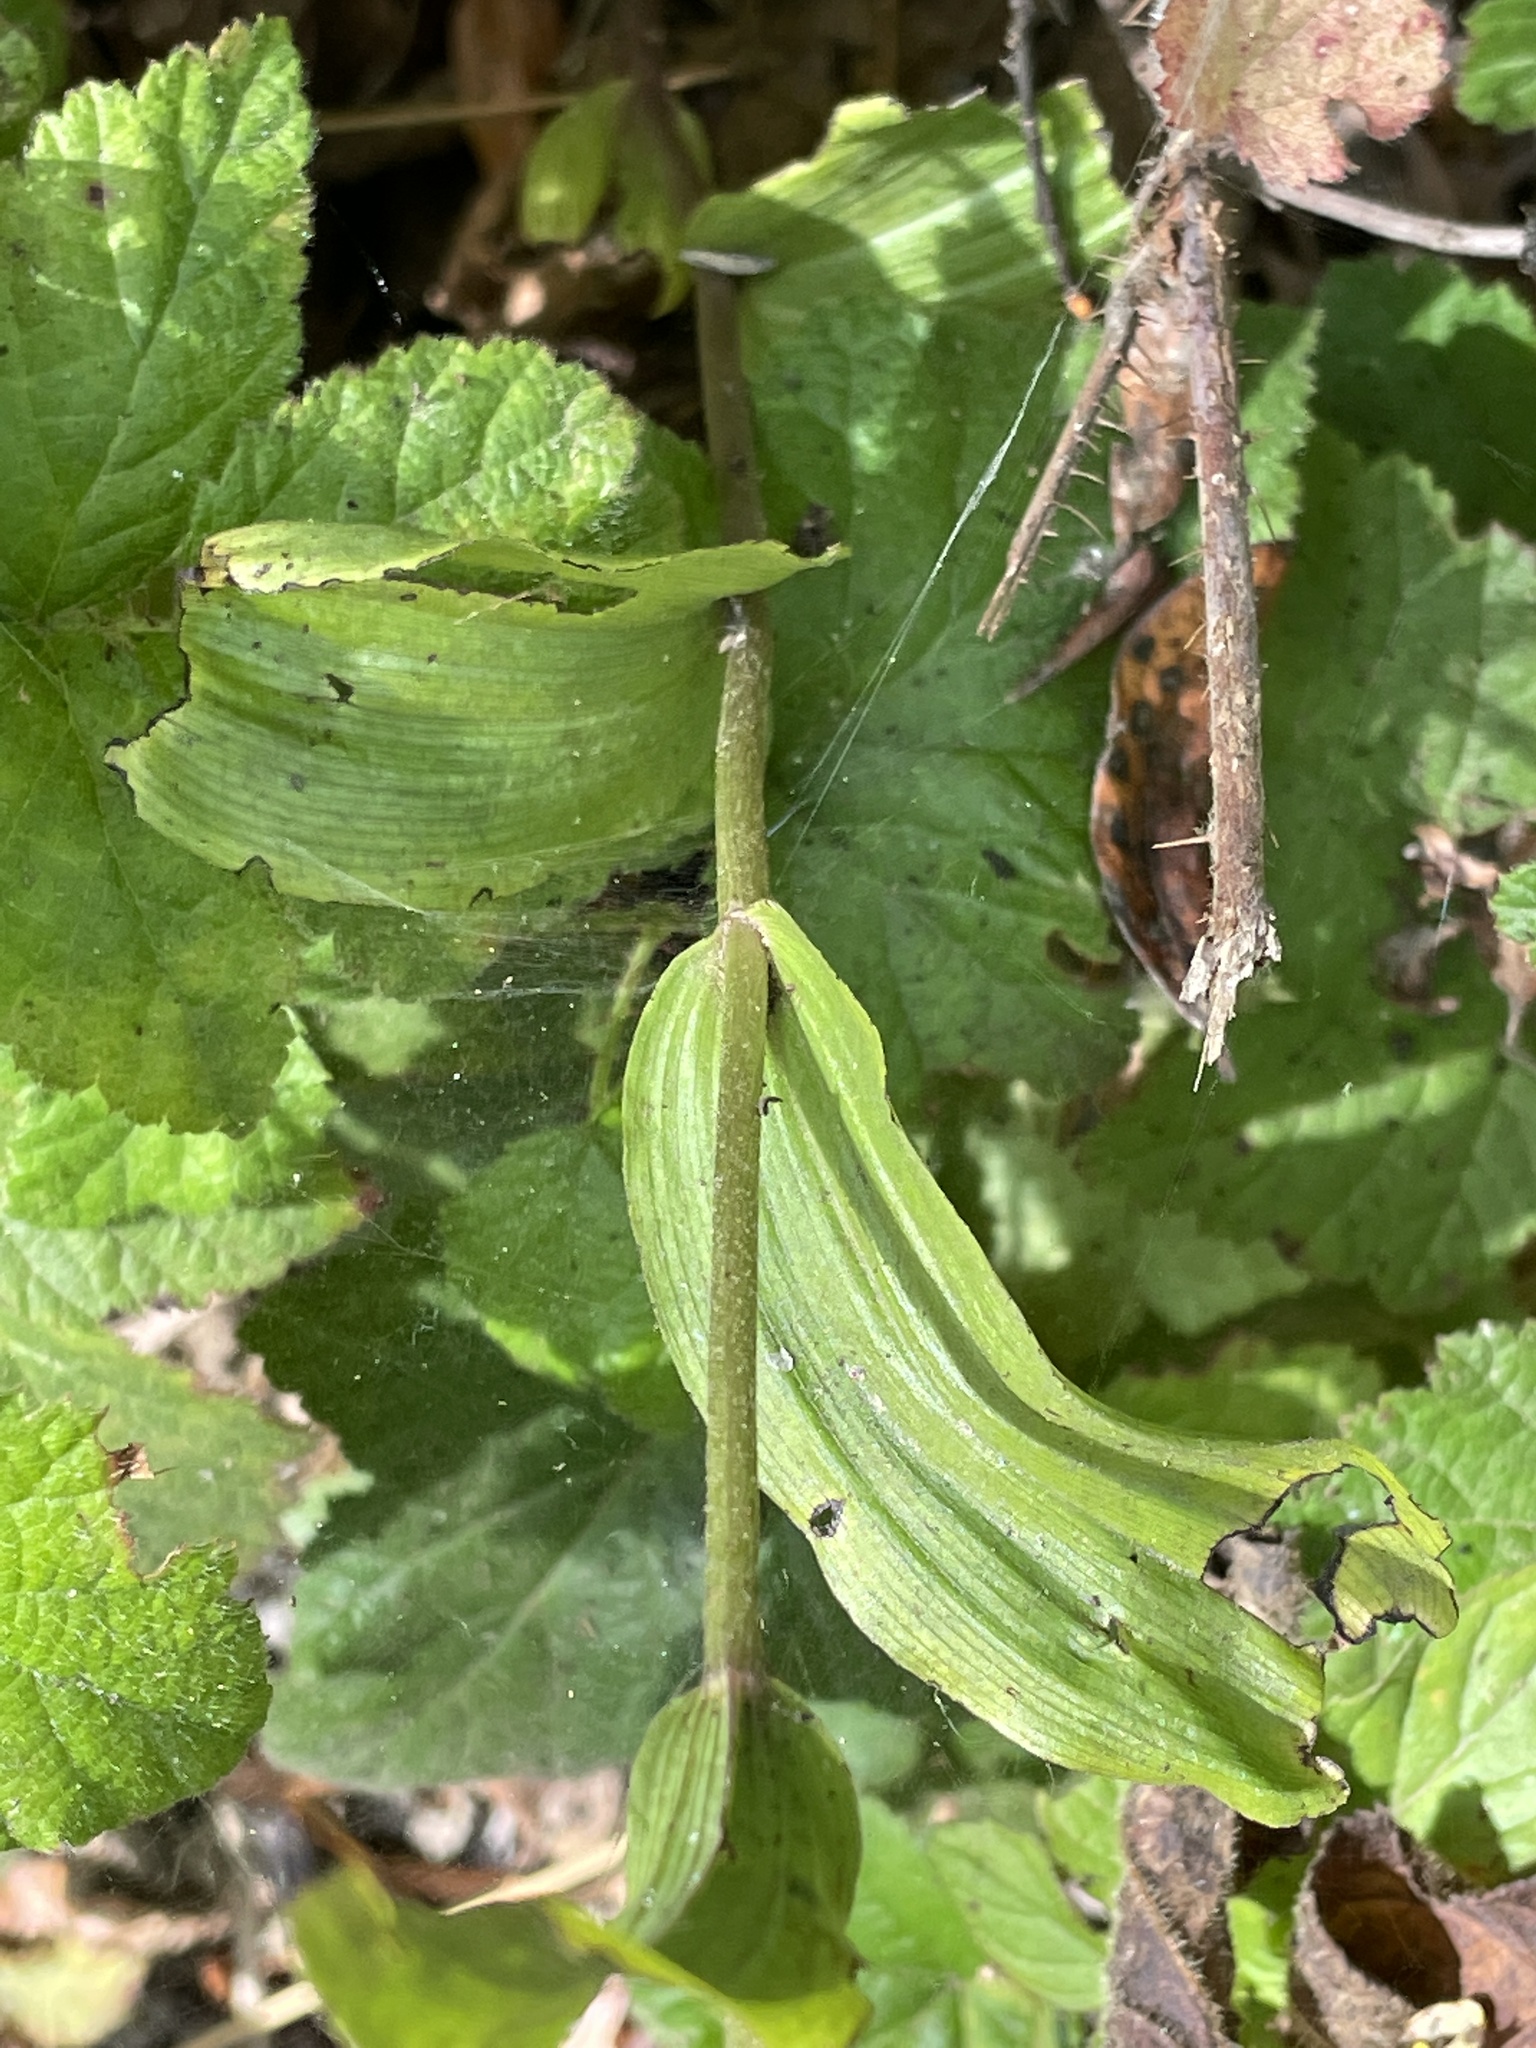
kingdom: Plantae
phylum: Tracheophyta
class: Liliopsida
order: Asparagales
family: Orchidaceae
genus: Epipactis
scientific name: Epipactis helleborine
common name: Broad-leaved helleborine
